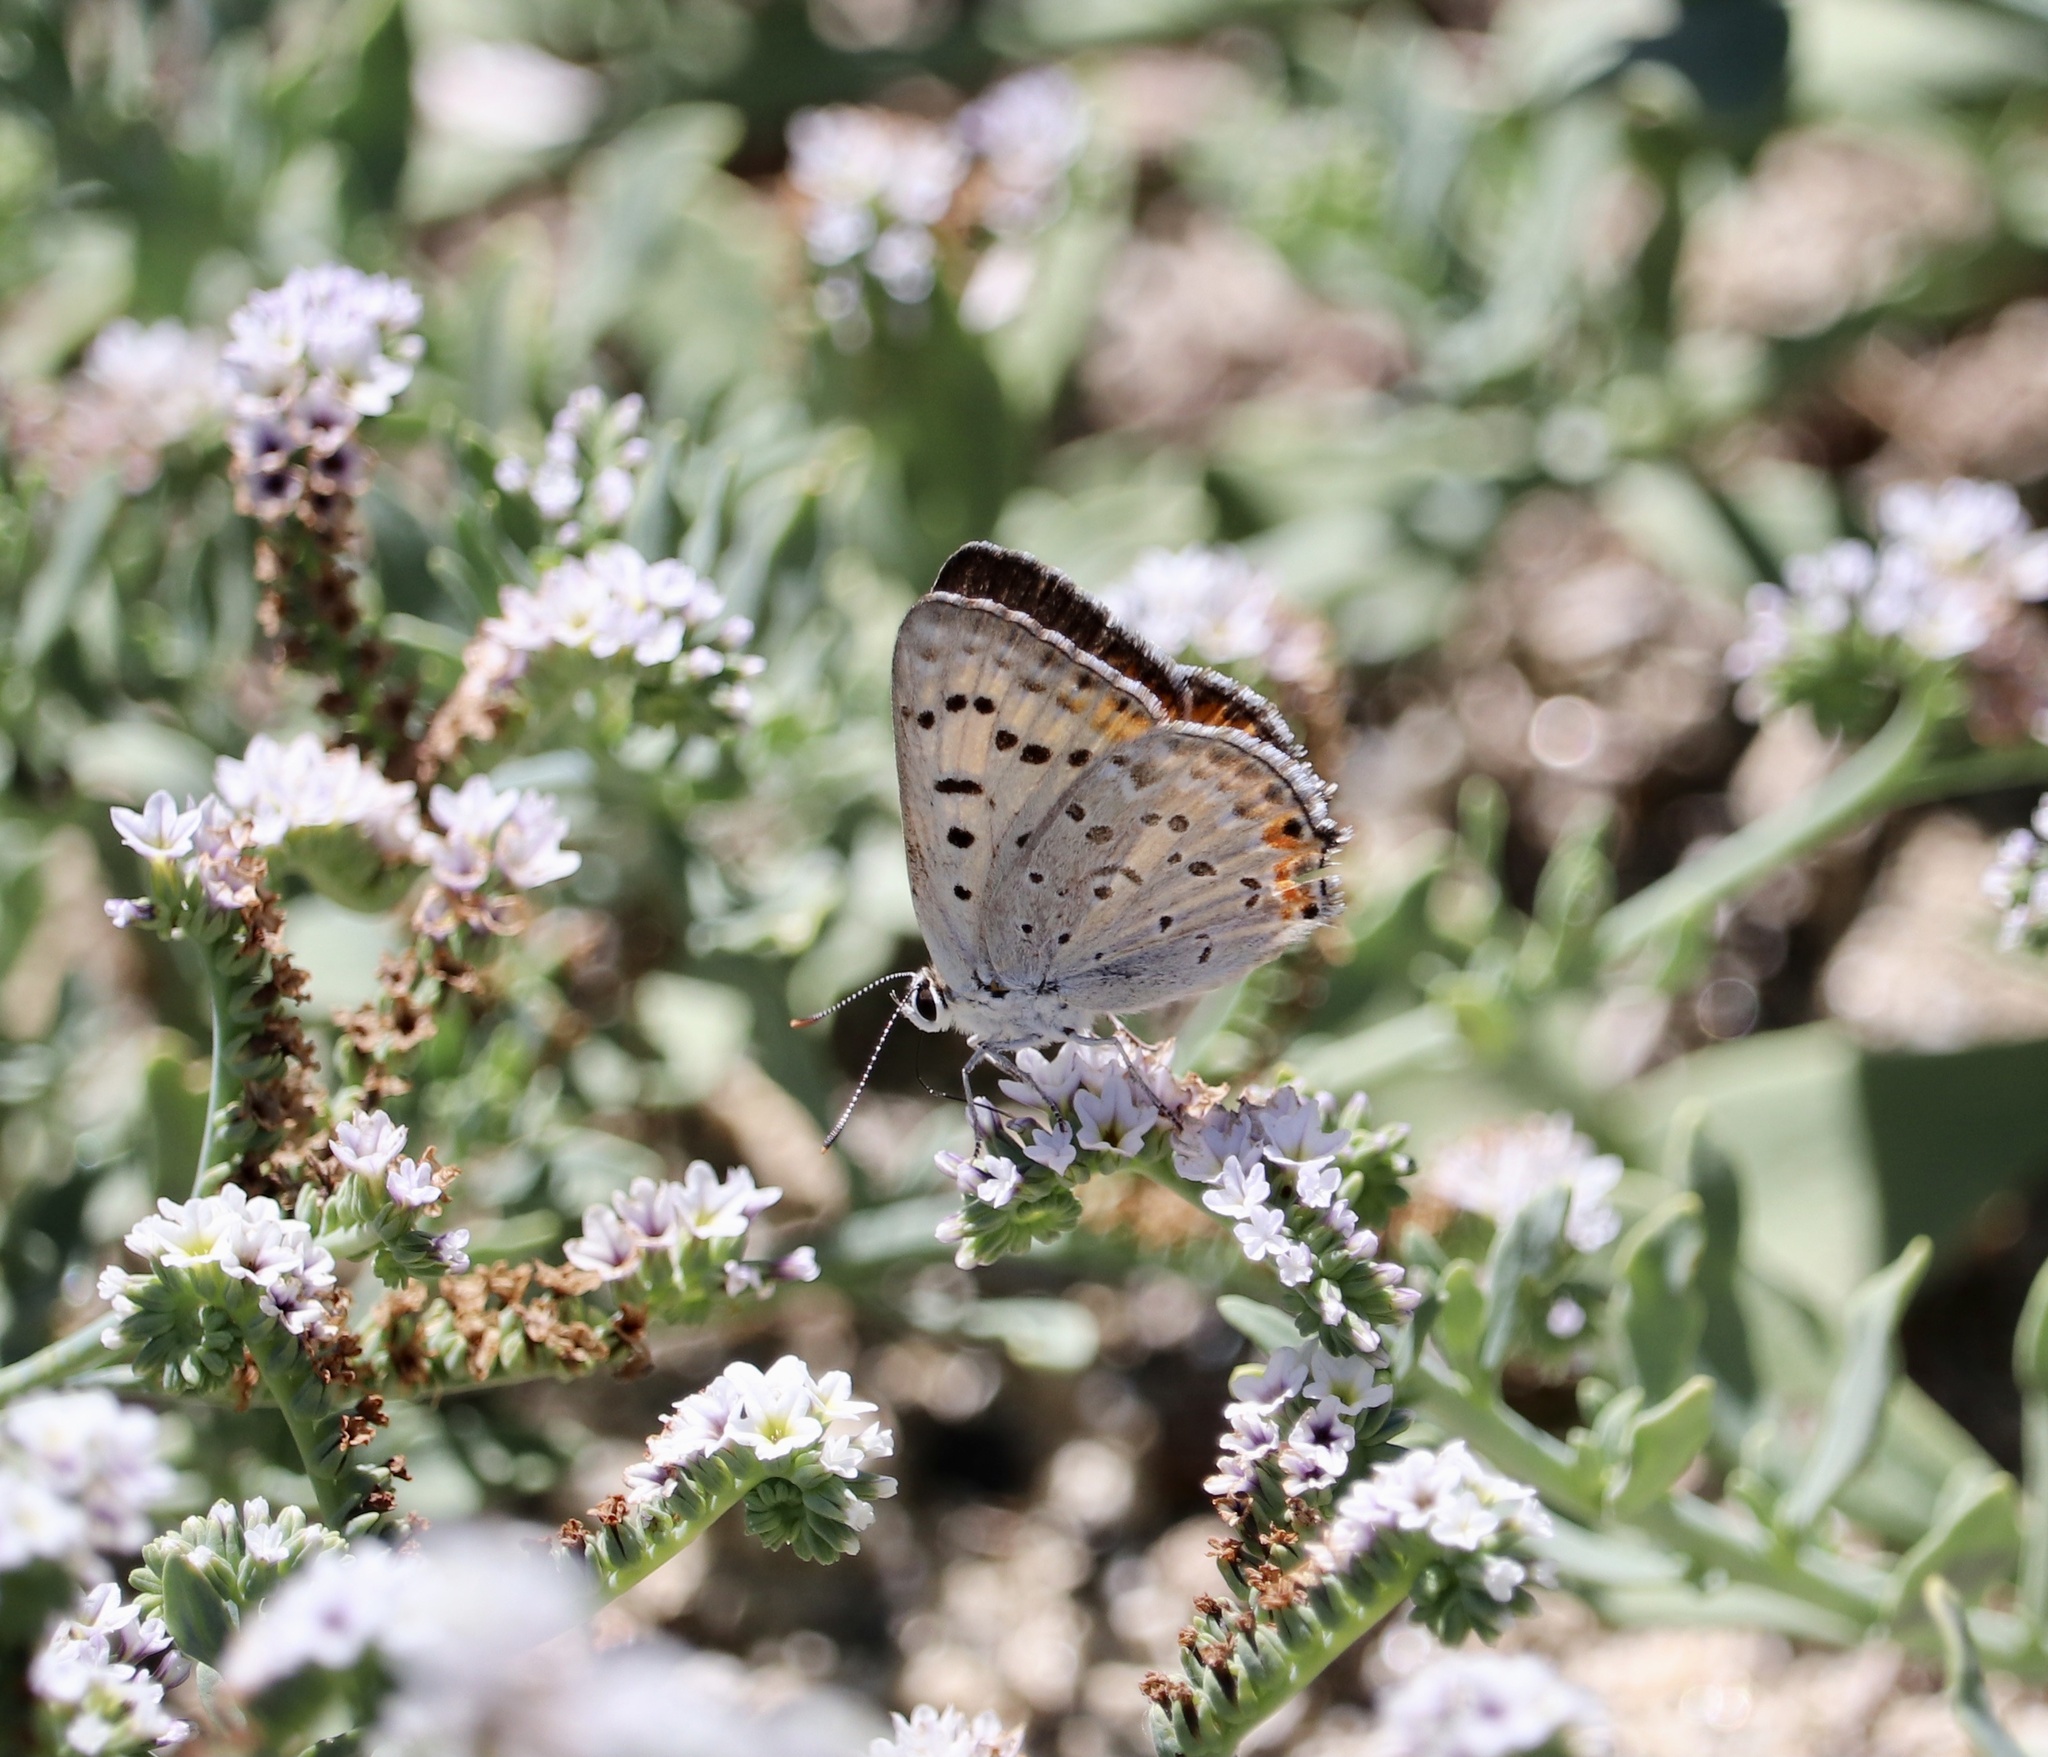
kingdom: Animalia
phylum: Arthropoda
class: Insecta
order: Lepidoptera
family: Lycaenidae
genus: Tharsalea
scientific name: Tharsalea xanthoides
